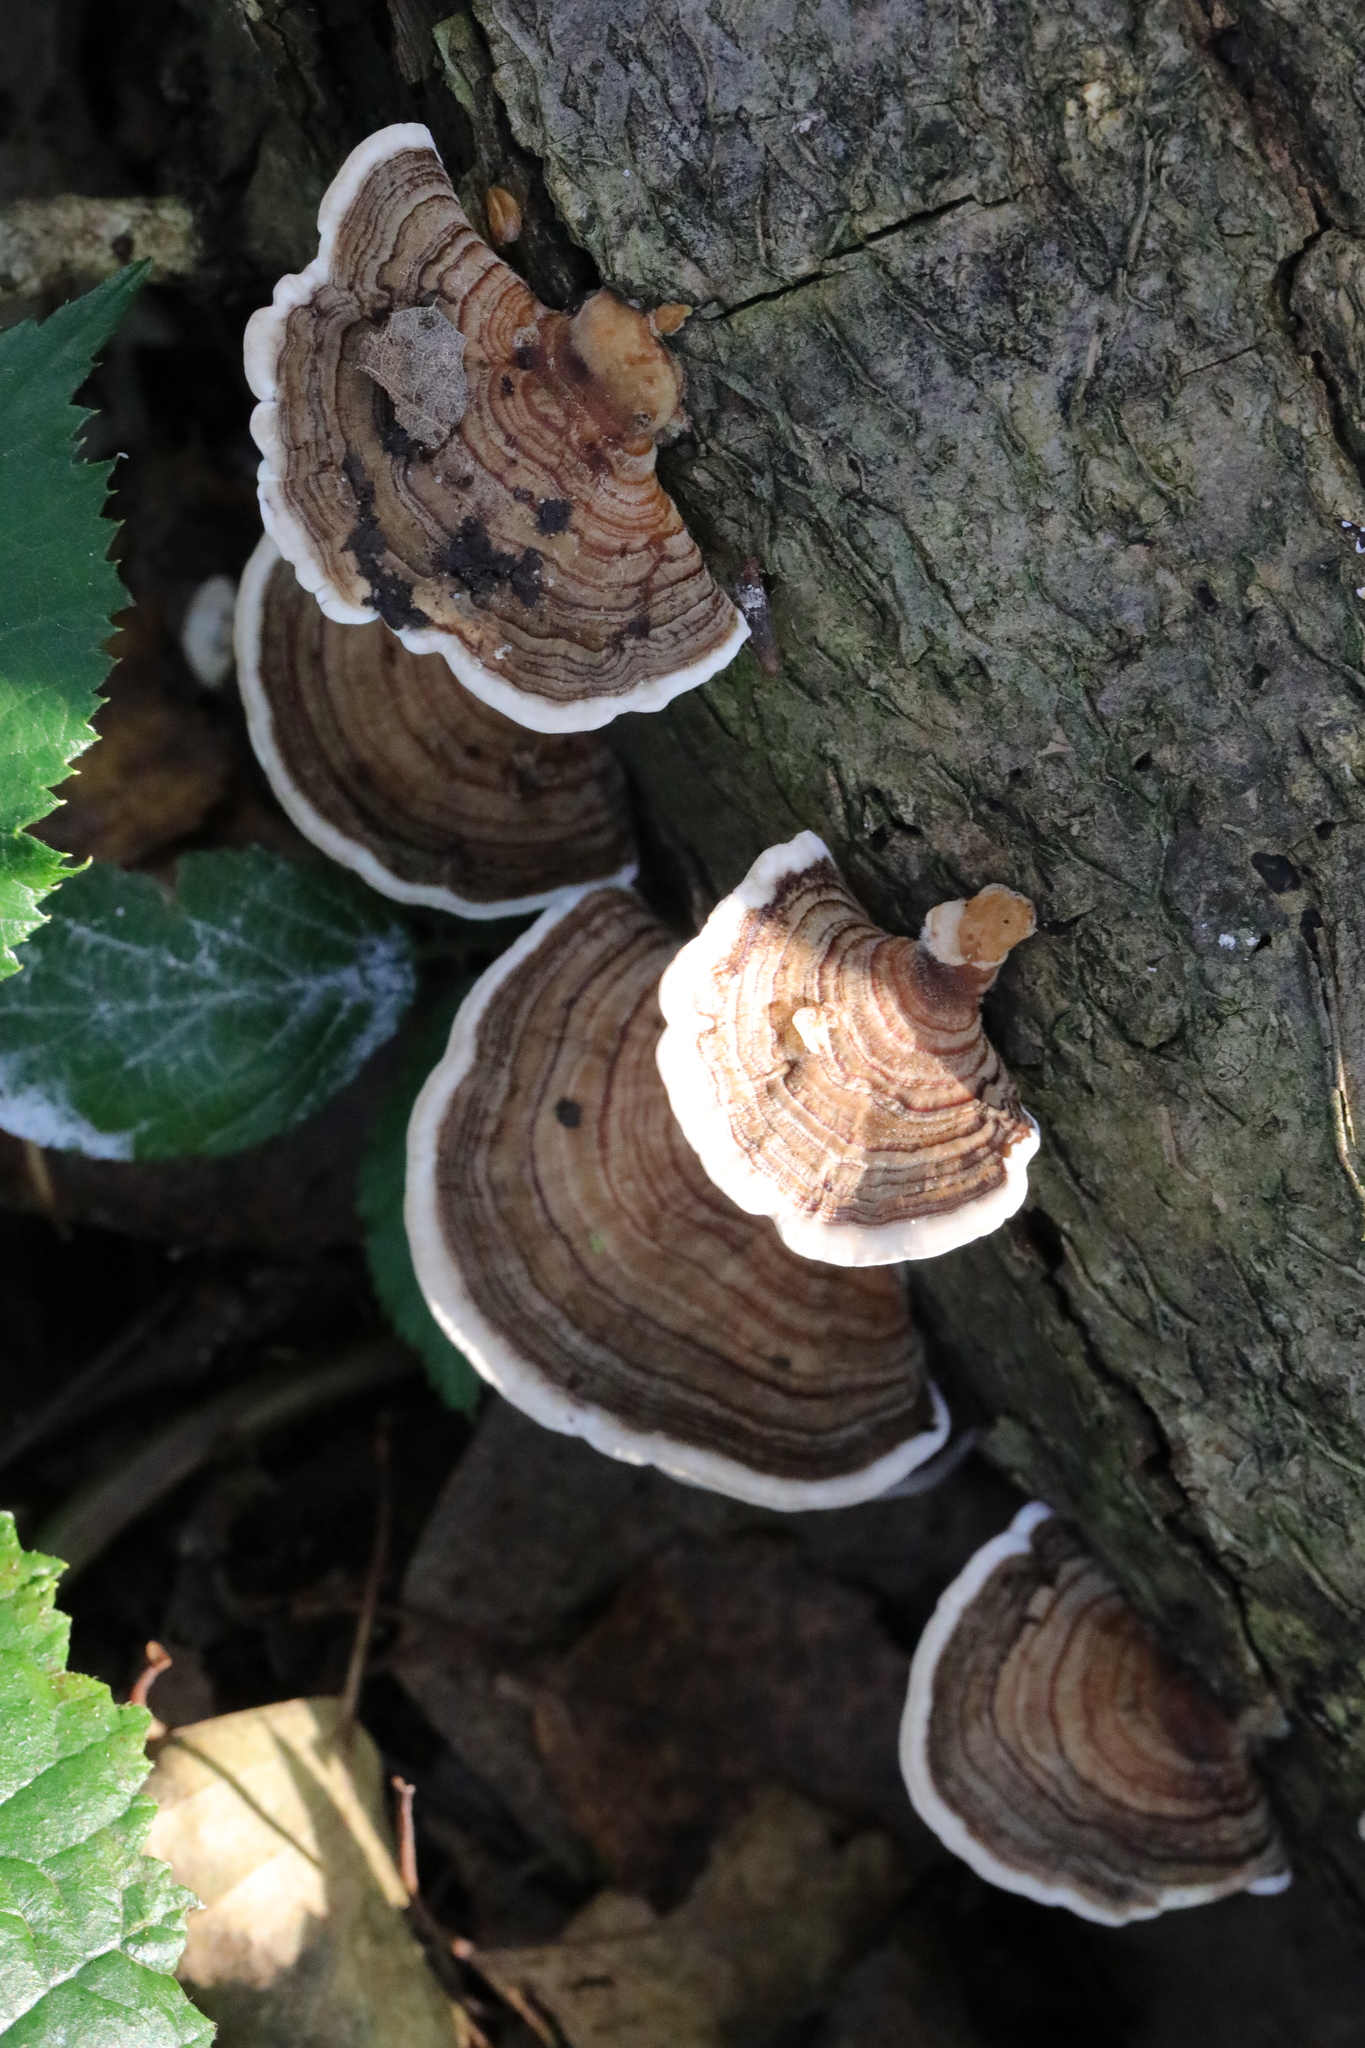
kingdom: Fungi
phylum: Basidiomycota
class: Agaricomycetes
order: Polyporales
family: Polyporaceae
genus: Trametes
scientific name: Trametes versicolor
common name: Turkeytail
